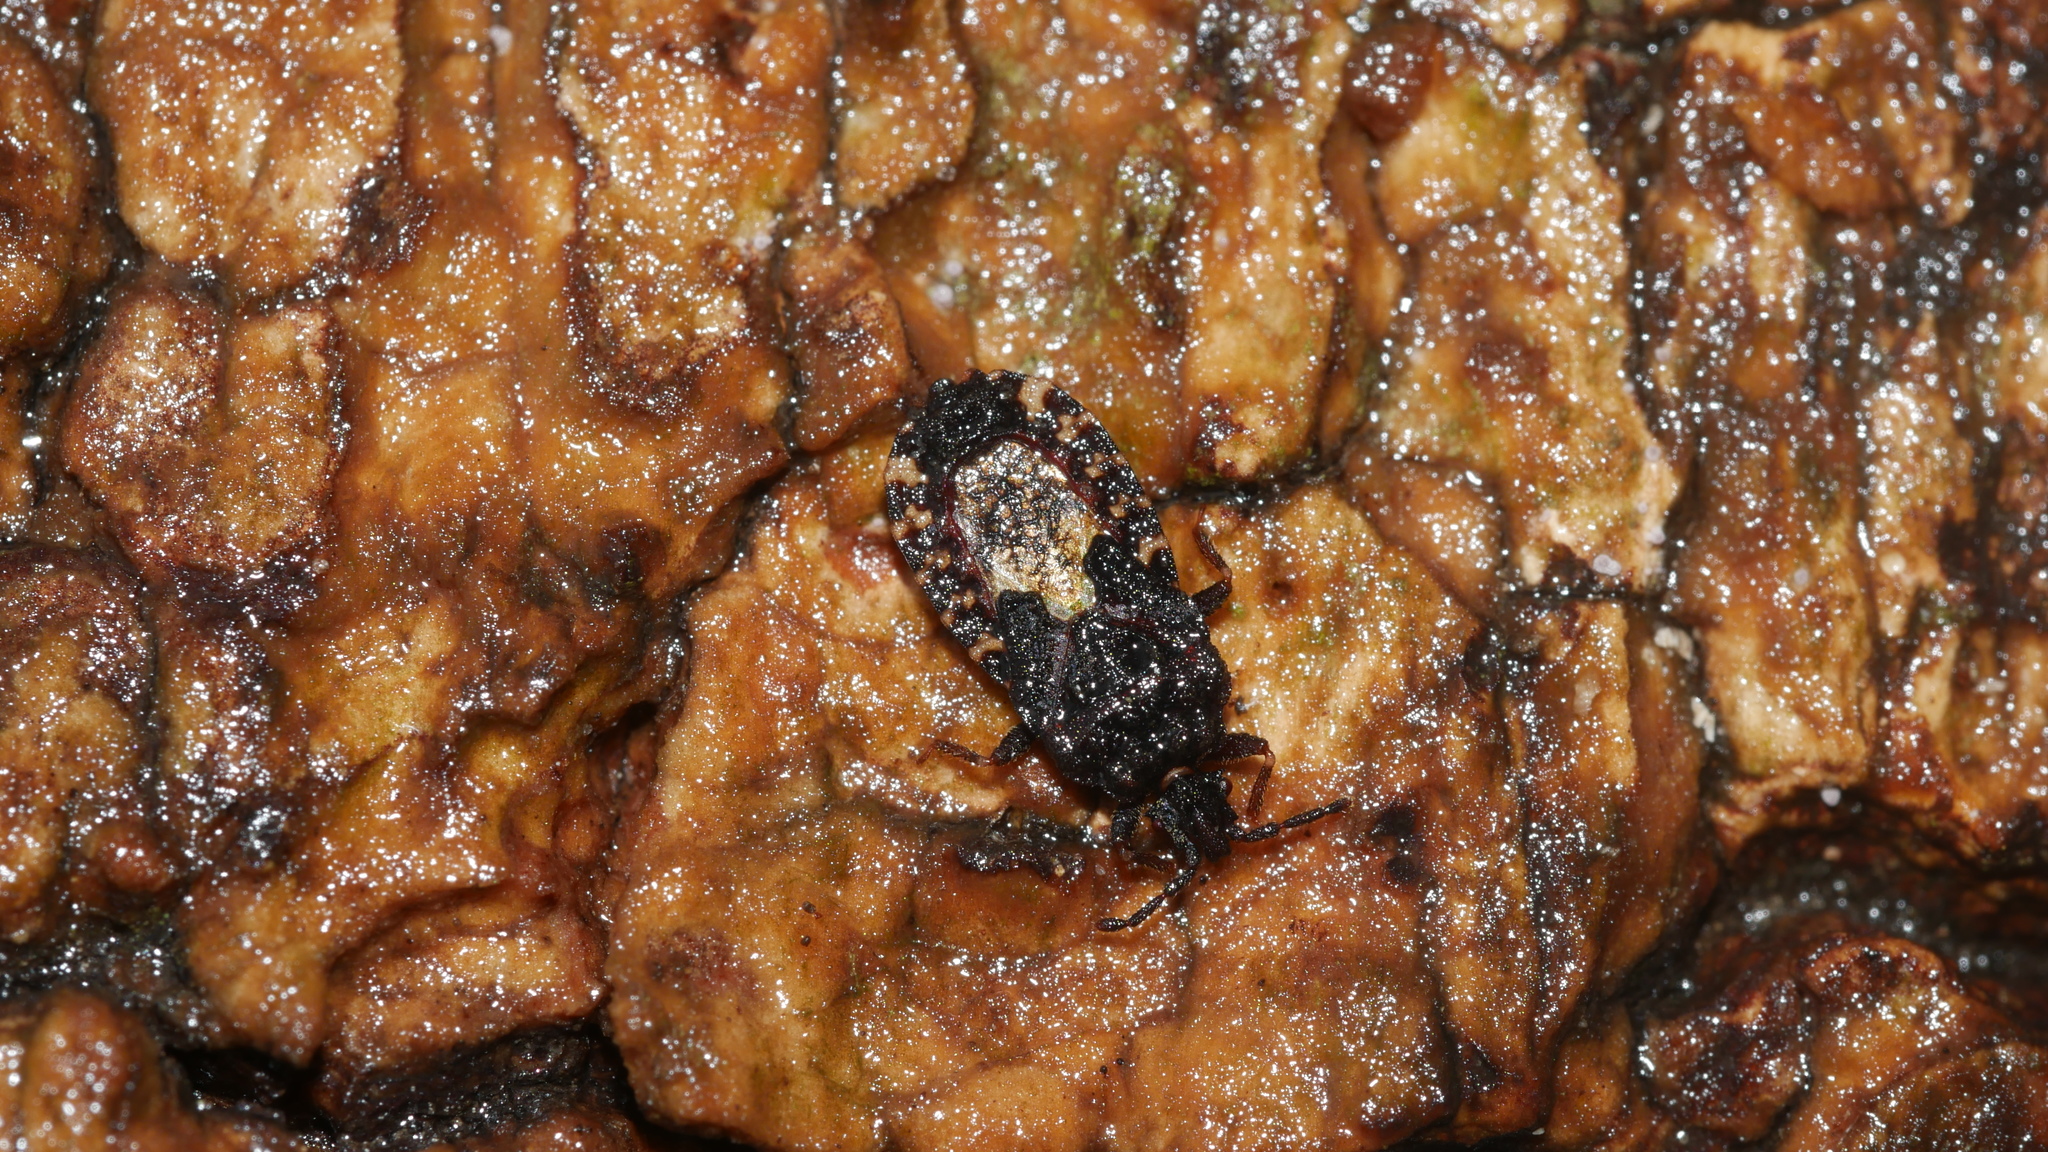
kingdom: Animalia
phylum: Arthropoda
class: Insecta
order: Hemiptera
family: Aradidae
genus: Mezira
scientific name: Mezira
